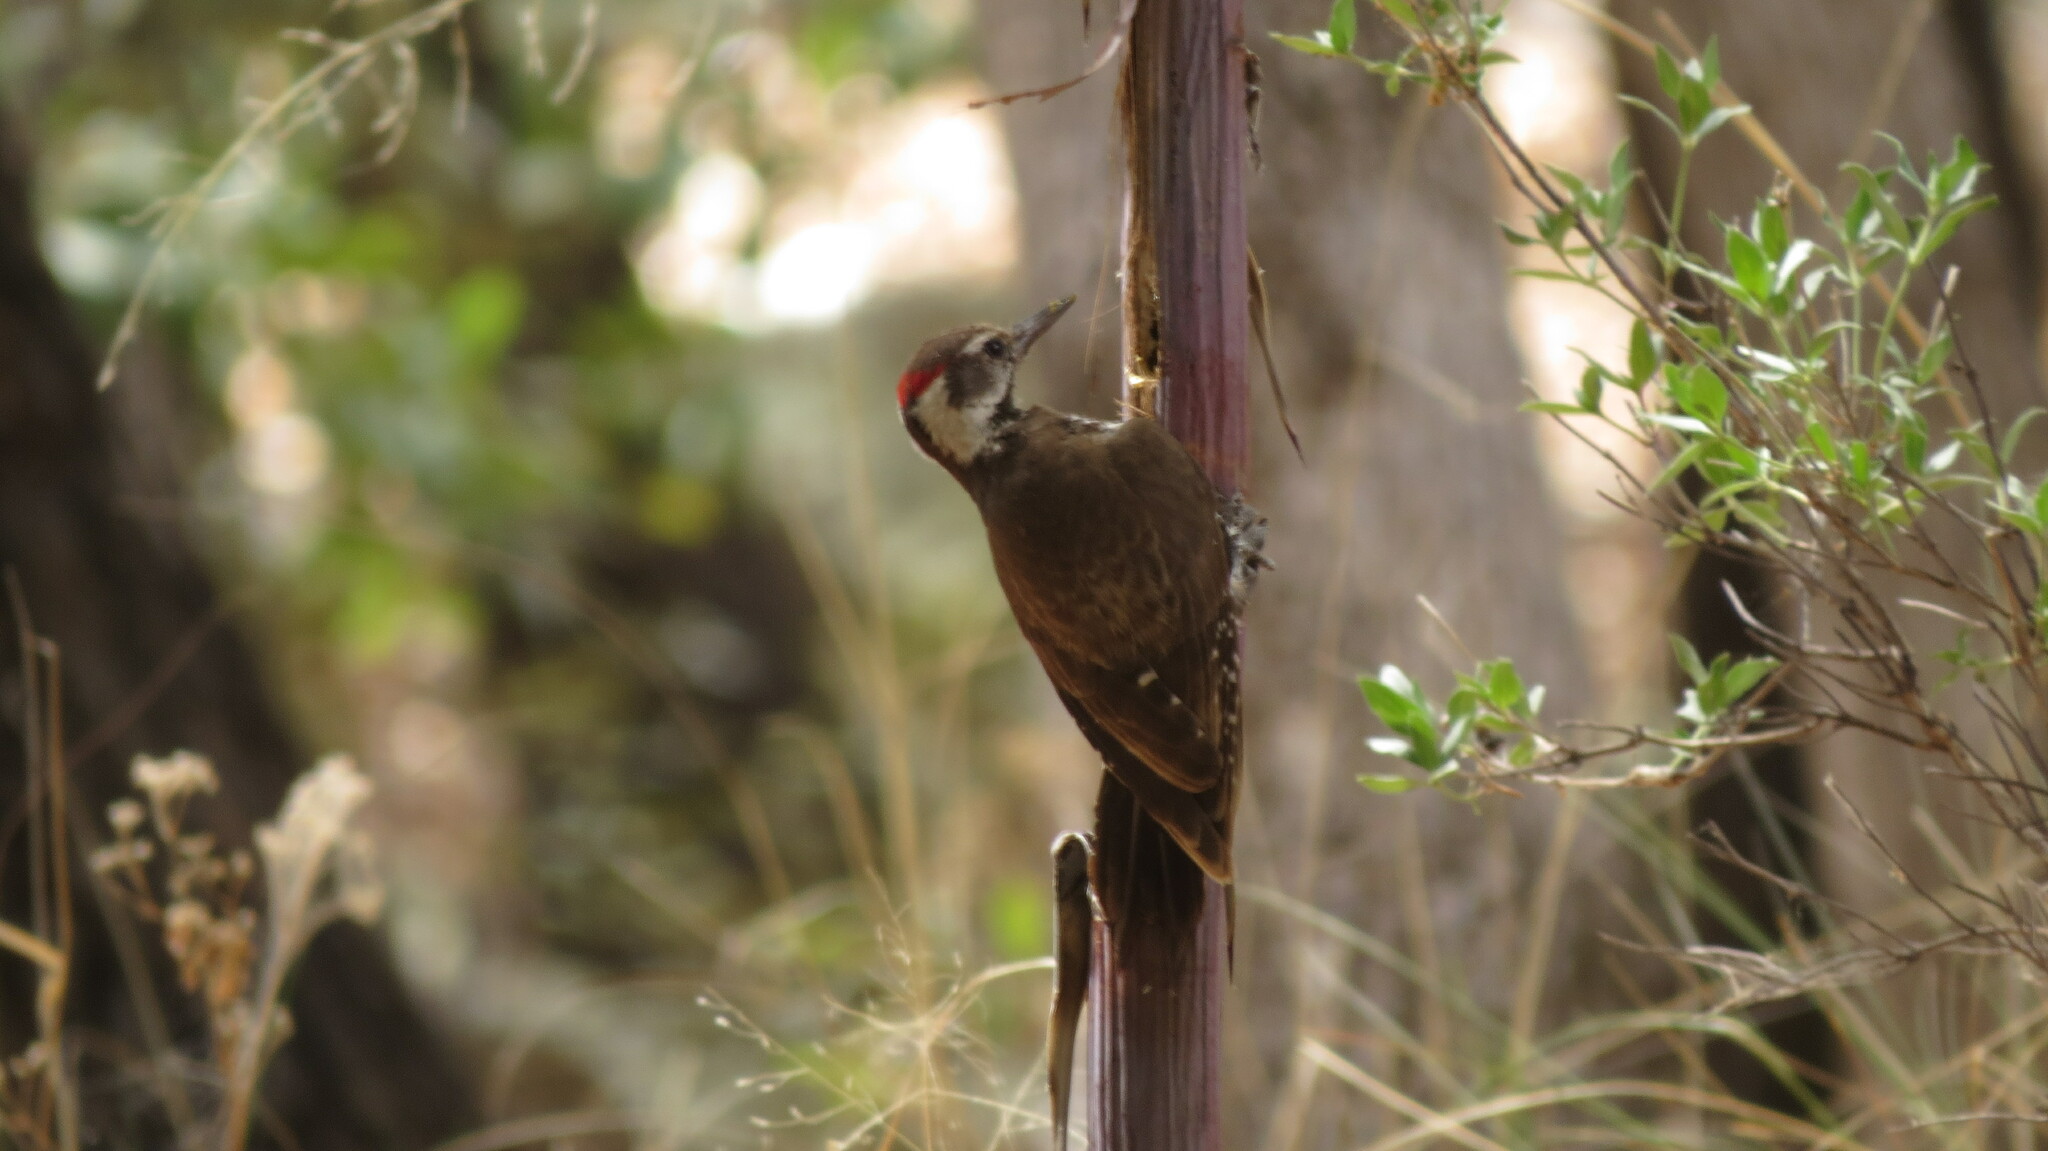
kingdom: Animalia
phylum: Chordata
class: Aves
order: Piciformes
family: Picidae
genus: Leuconotopicus
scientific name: Leuconotopicus arizonae
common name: Arizona woodpecker
